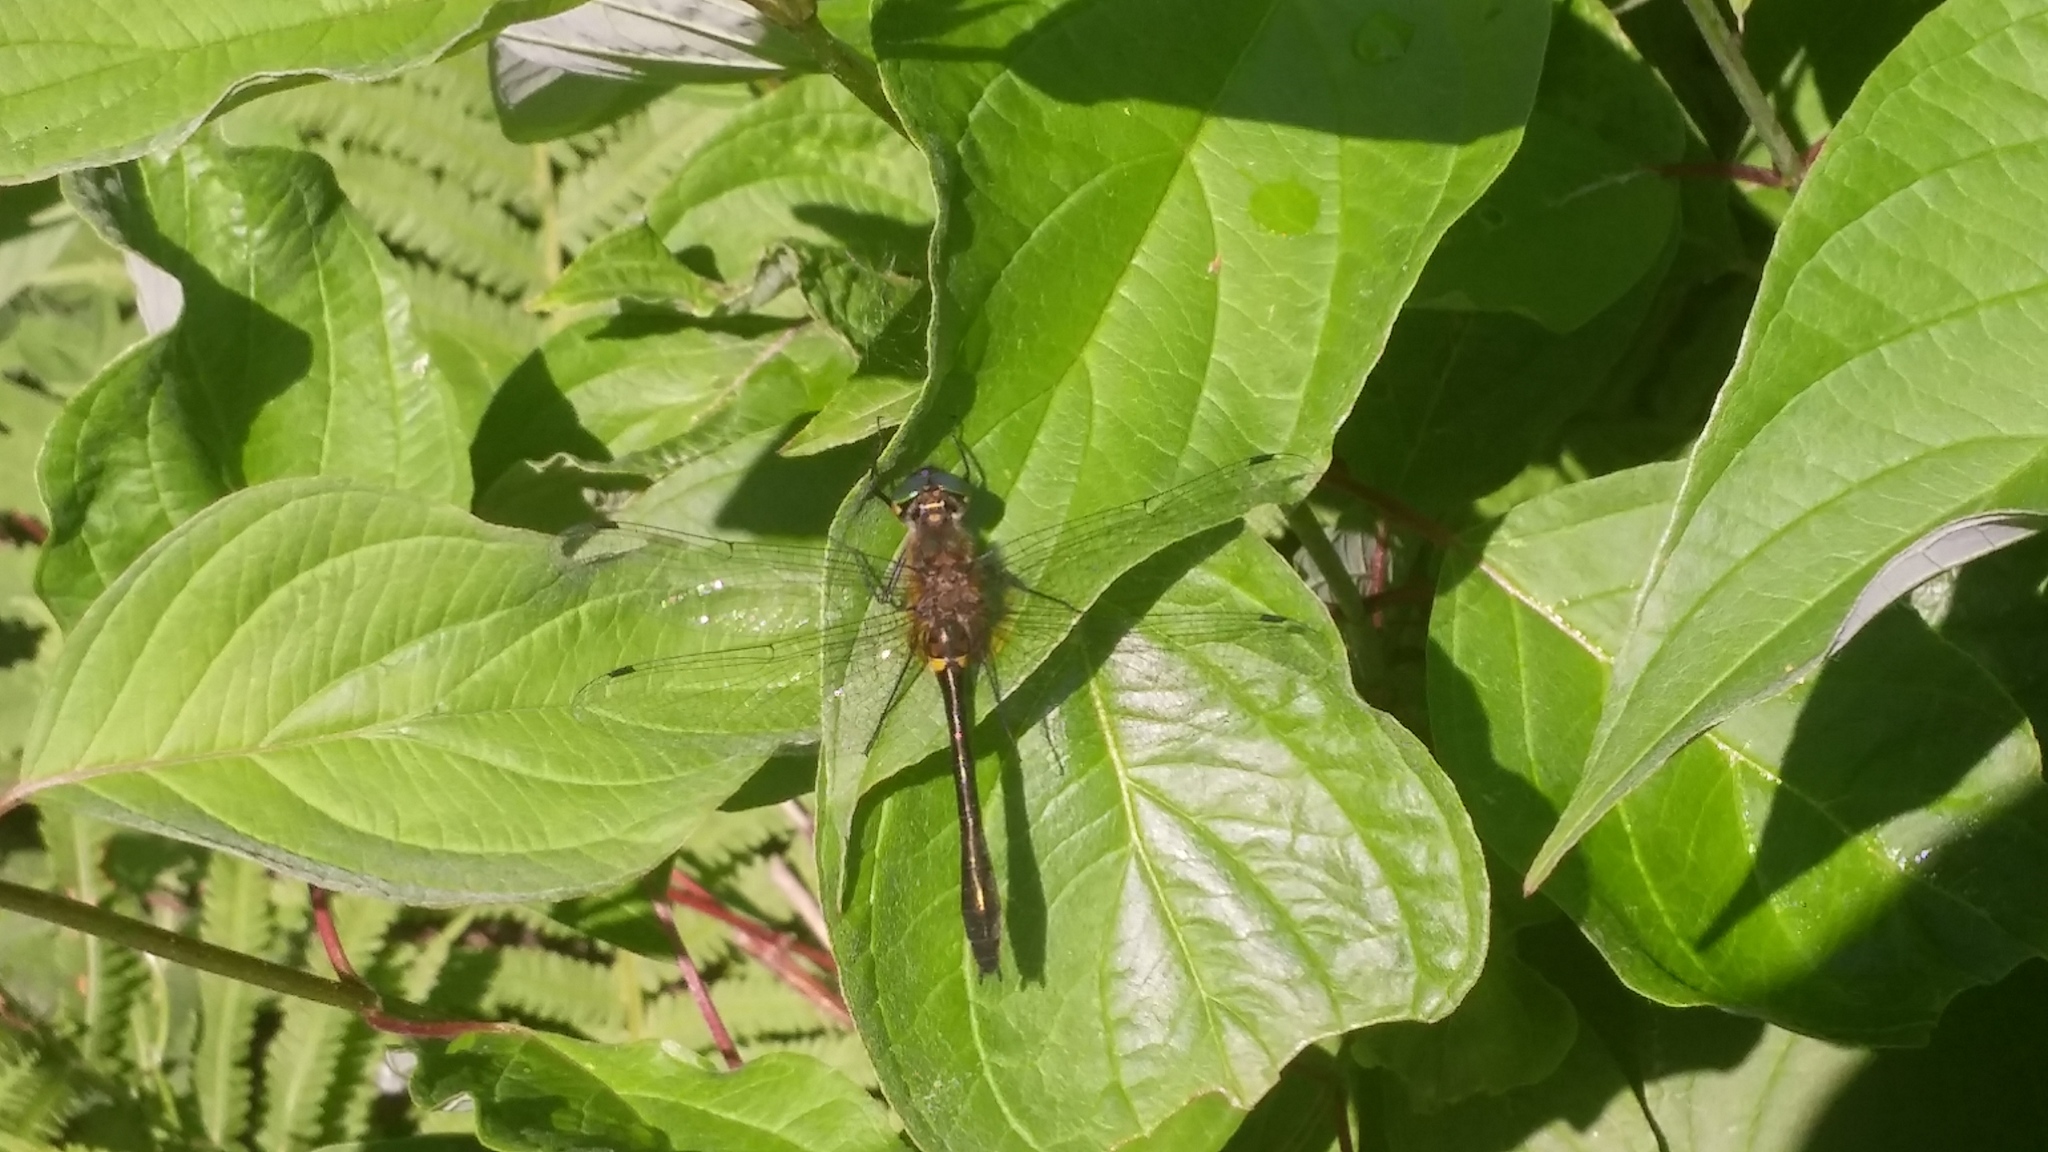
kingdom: Animalia
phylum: Arthropoda
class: Insecta
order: Odonata
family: Corduliidae
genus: Dorocordulia
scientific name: Dorocordulia libera
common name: Racket-tailed emerald
